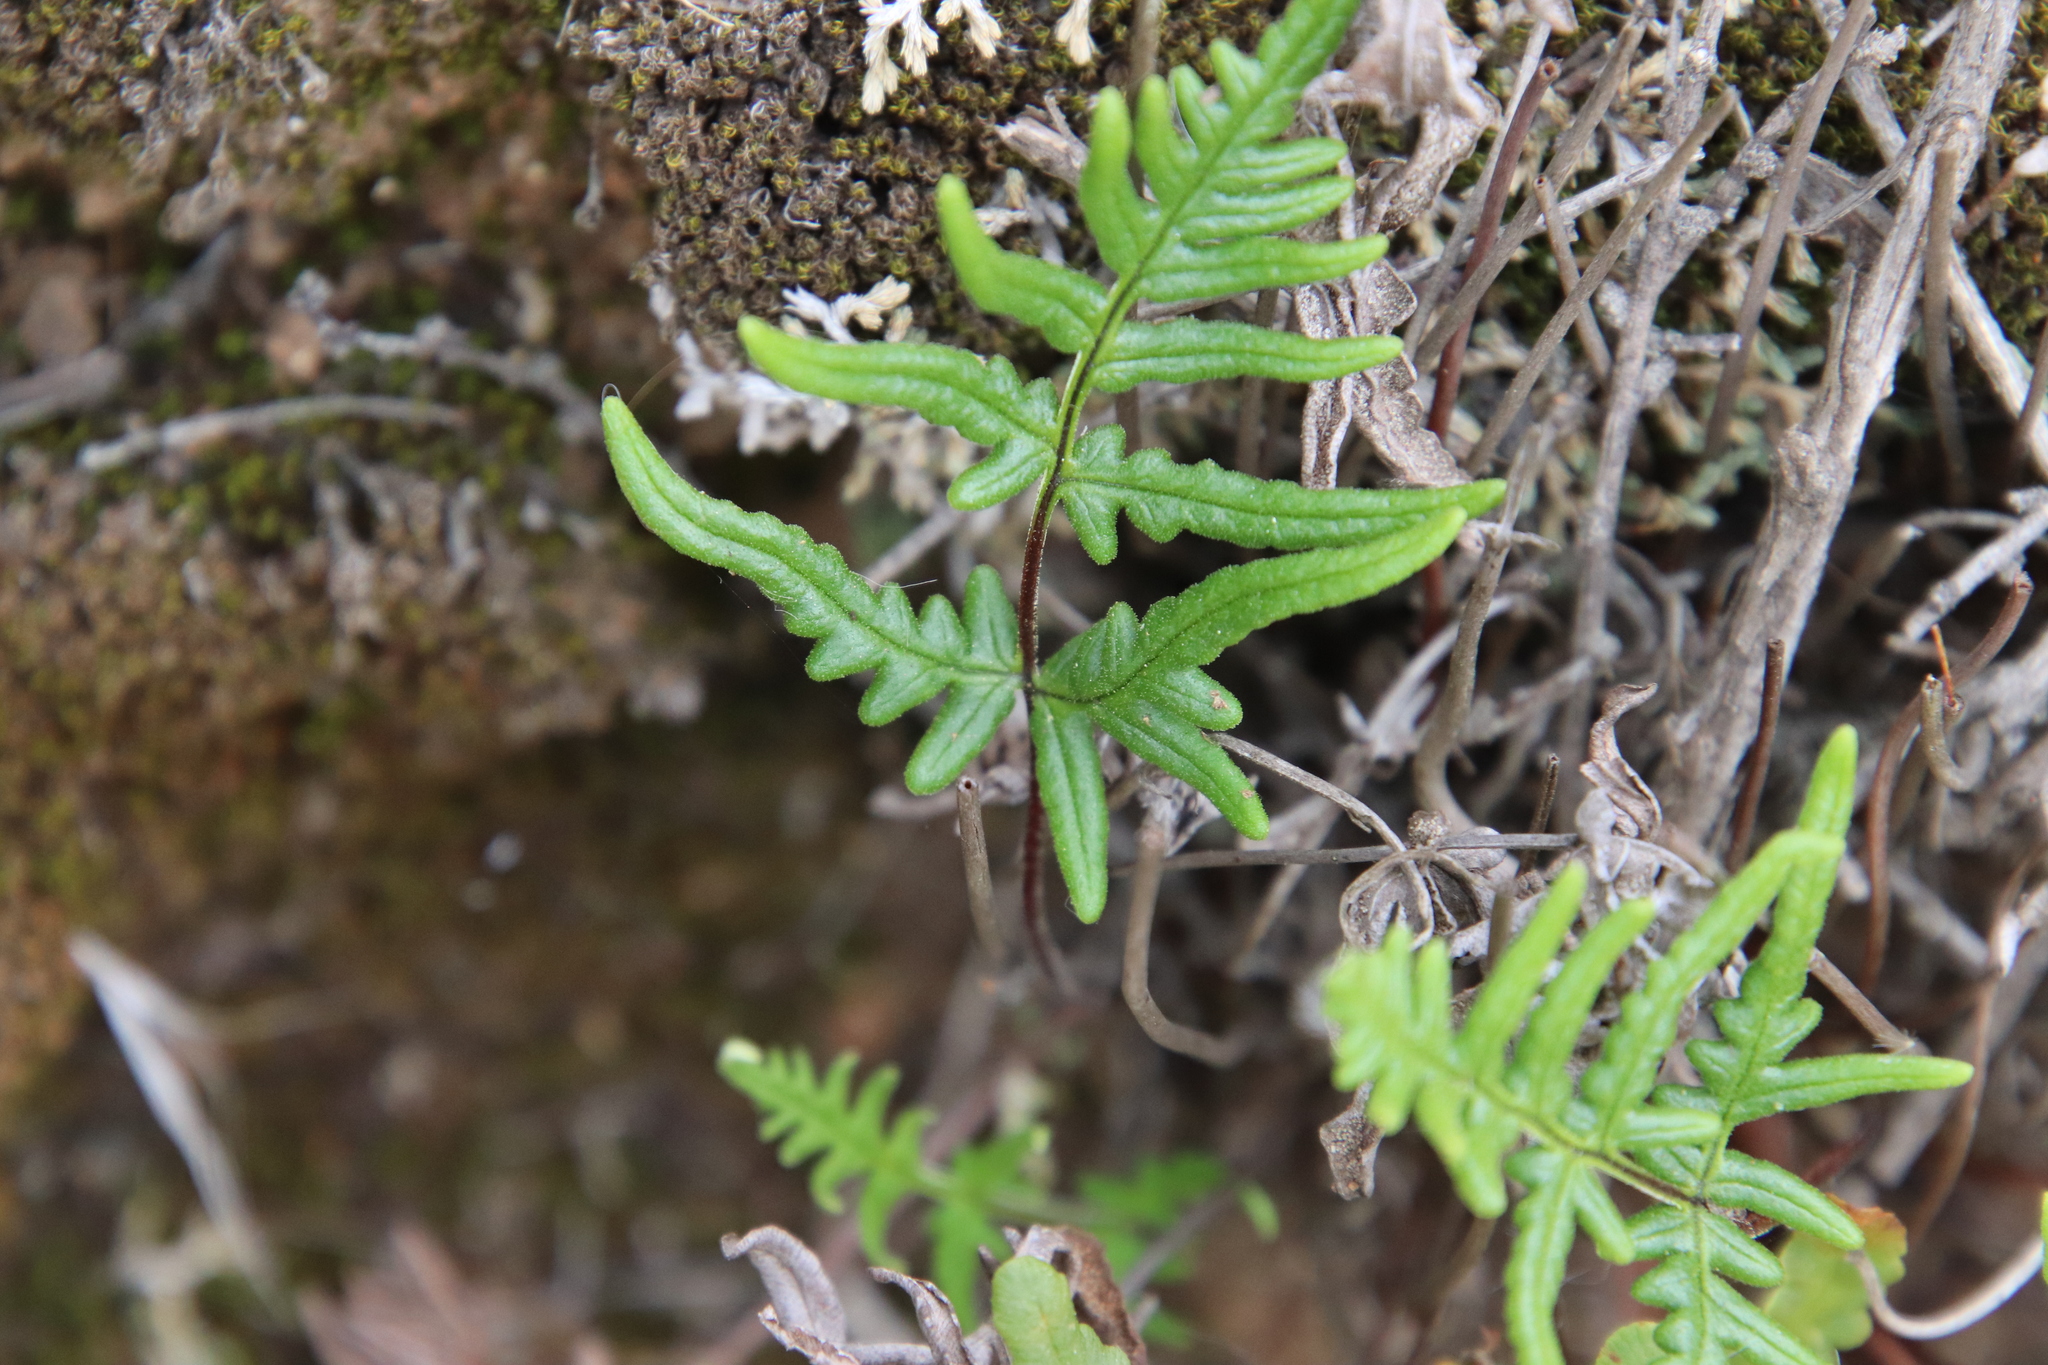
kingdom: Plantae
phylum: Tracheophyta
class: Polypodiopsida
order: Polypodiales
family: Pteridaceae
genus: Pentagramma
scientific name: Pentagramma viscosa
